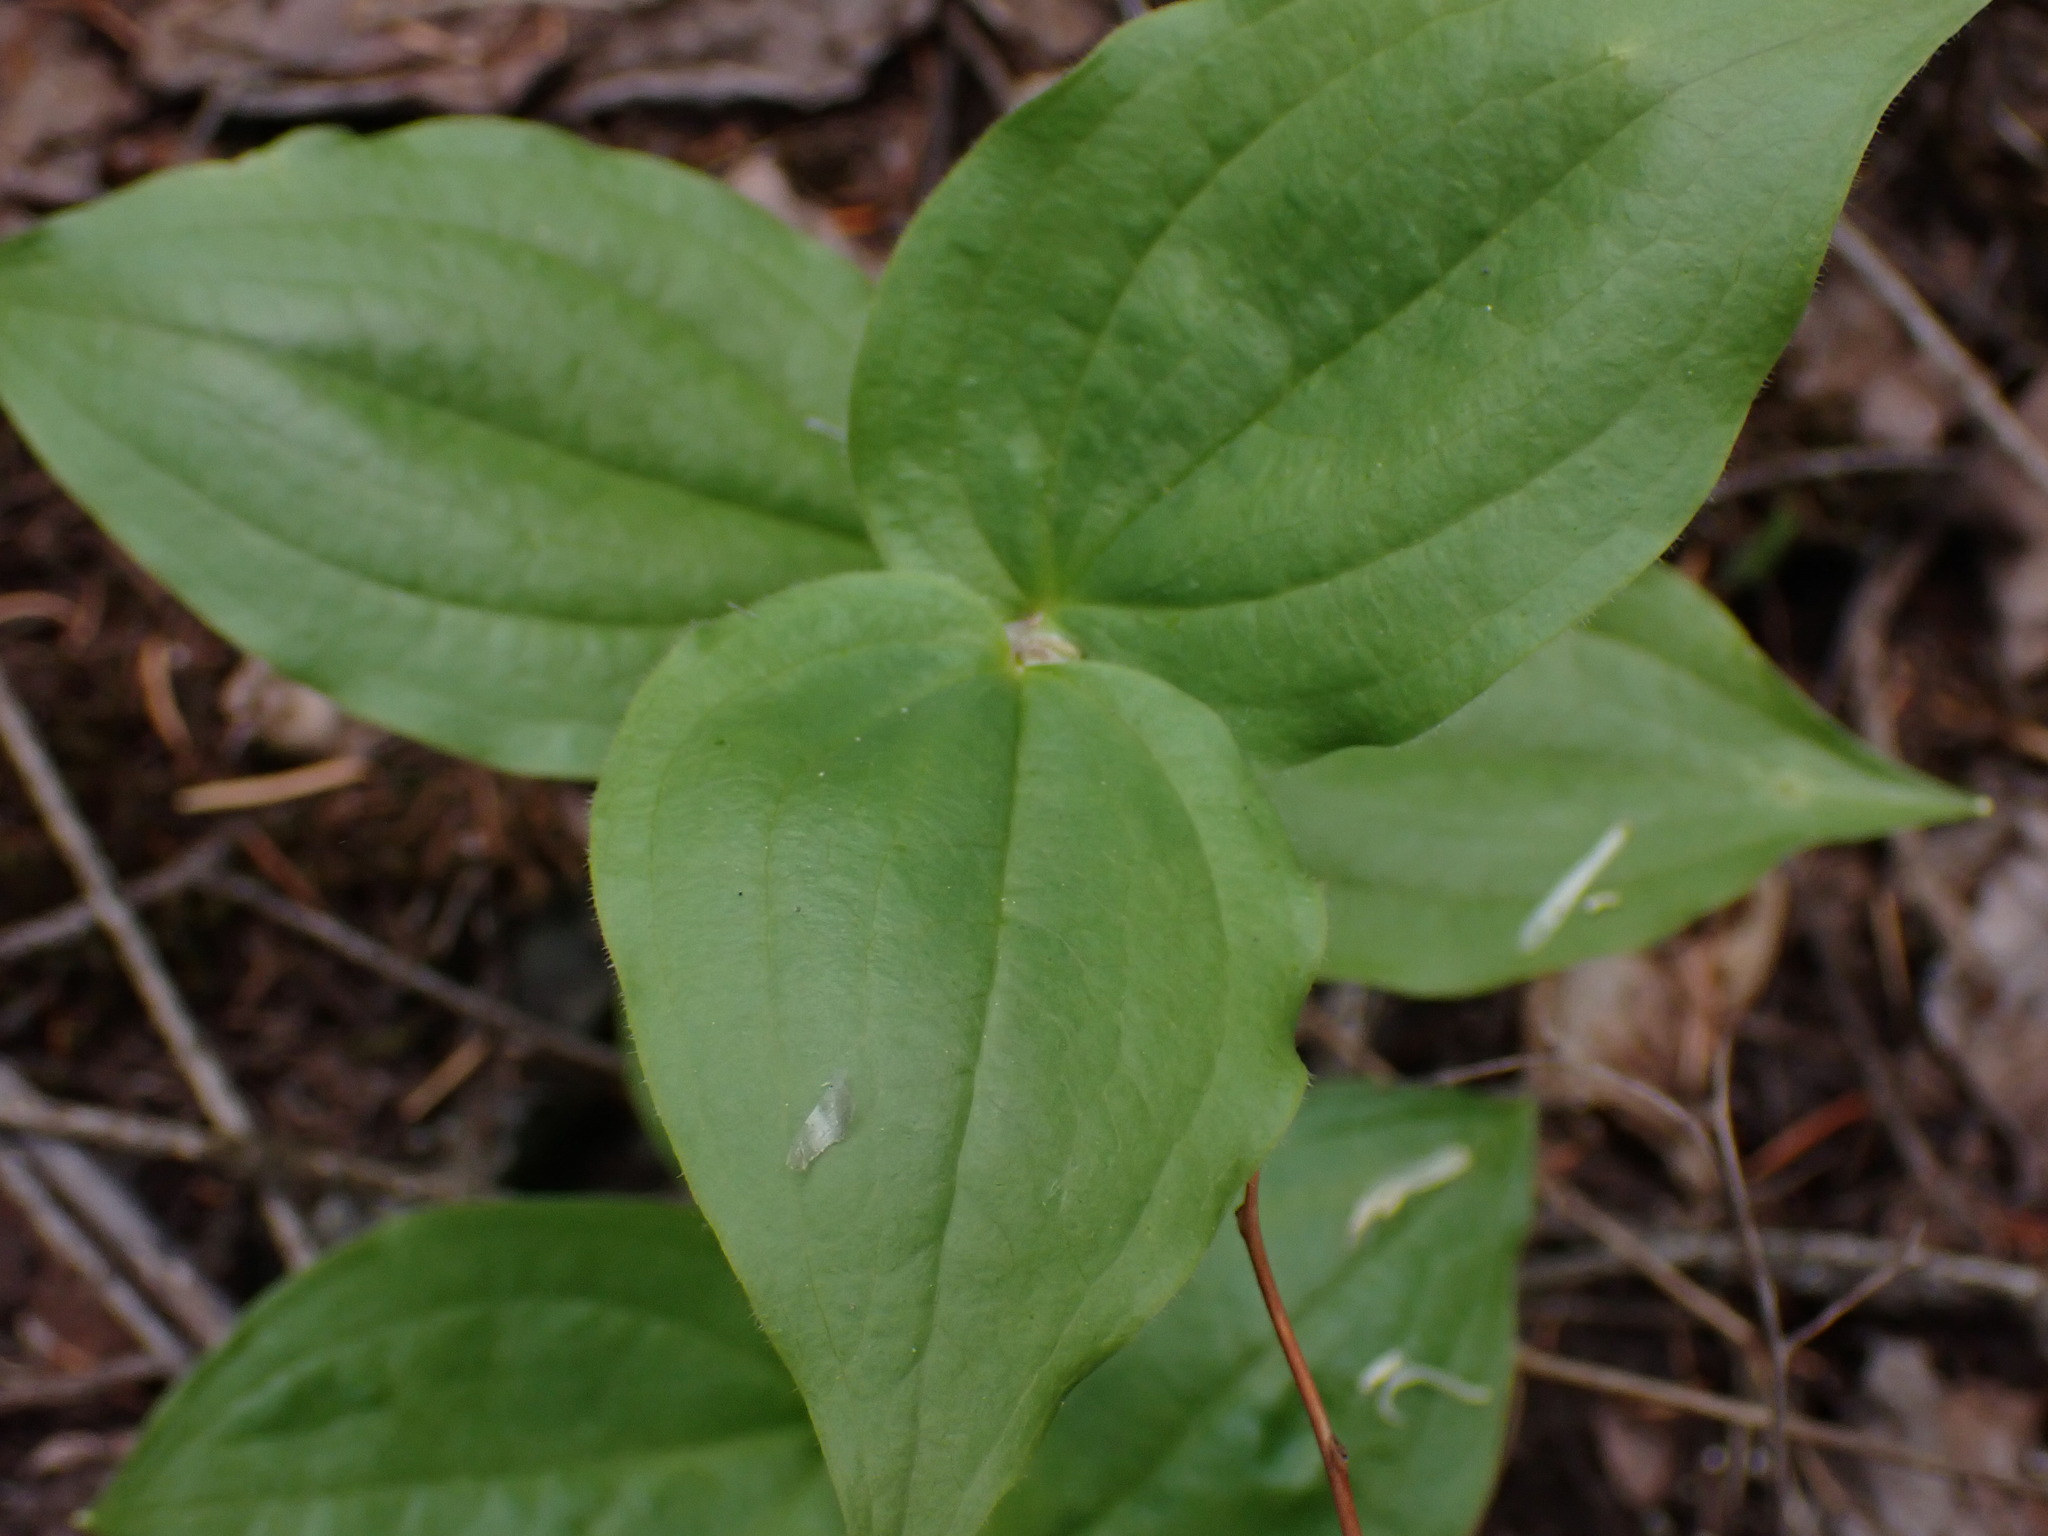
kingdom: Plantae
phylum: Tracheophyta
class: Liliopsida
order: Liliales
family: Liliaceae
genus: Prosartes
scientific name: Prosartes trachycarpa
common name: Rough-fruit fairy-bells
